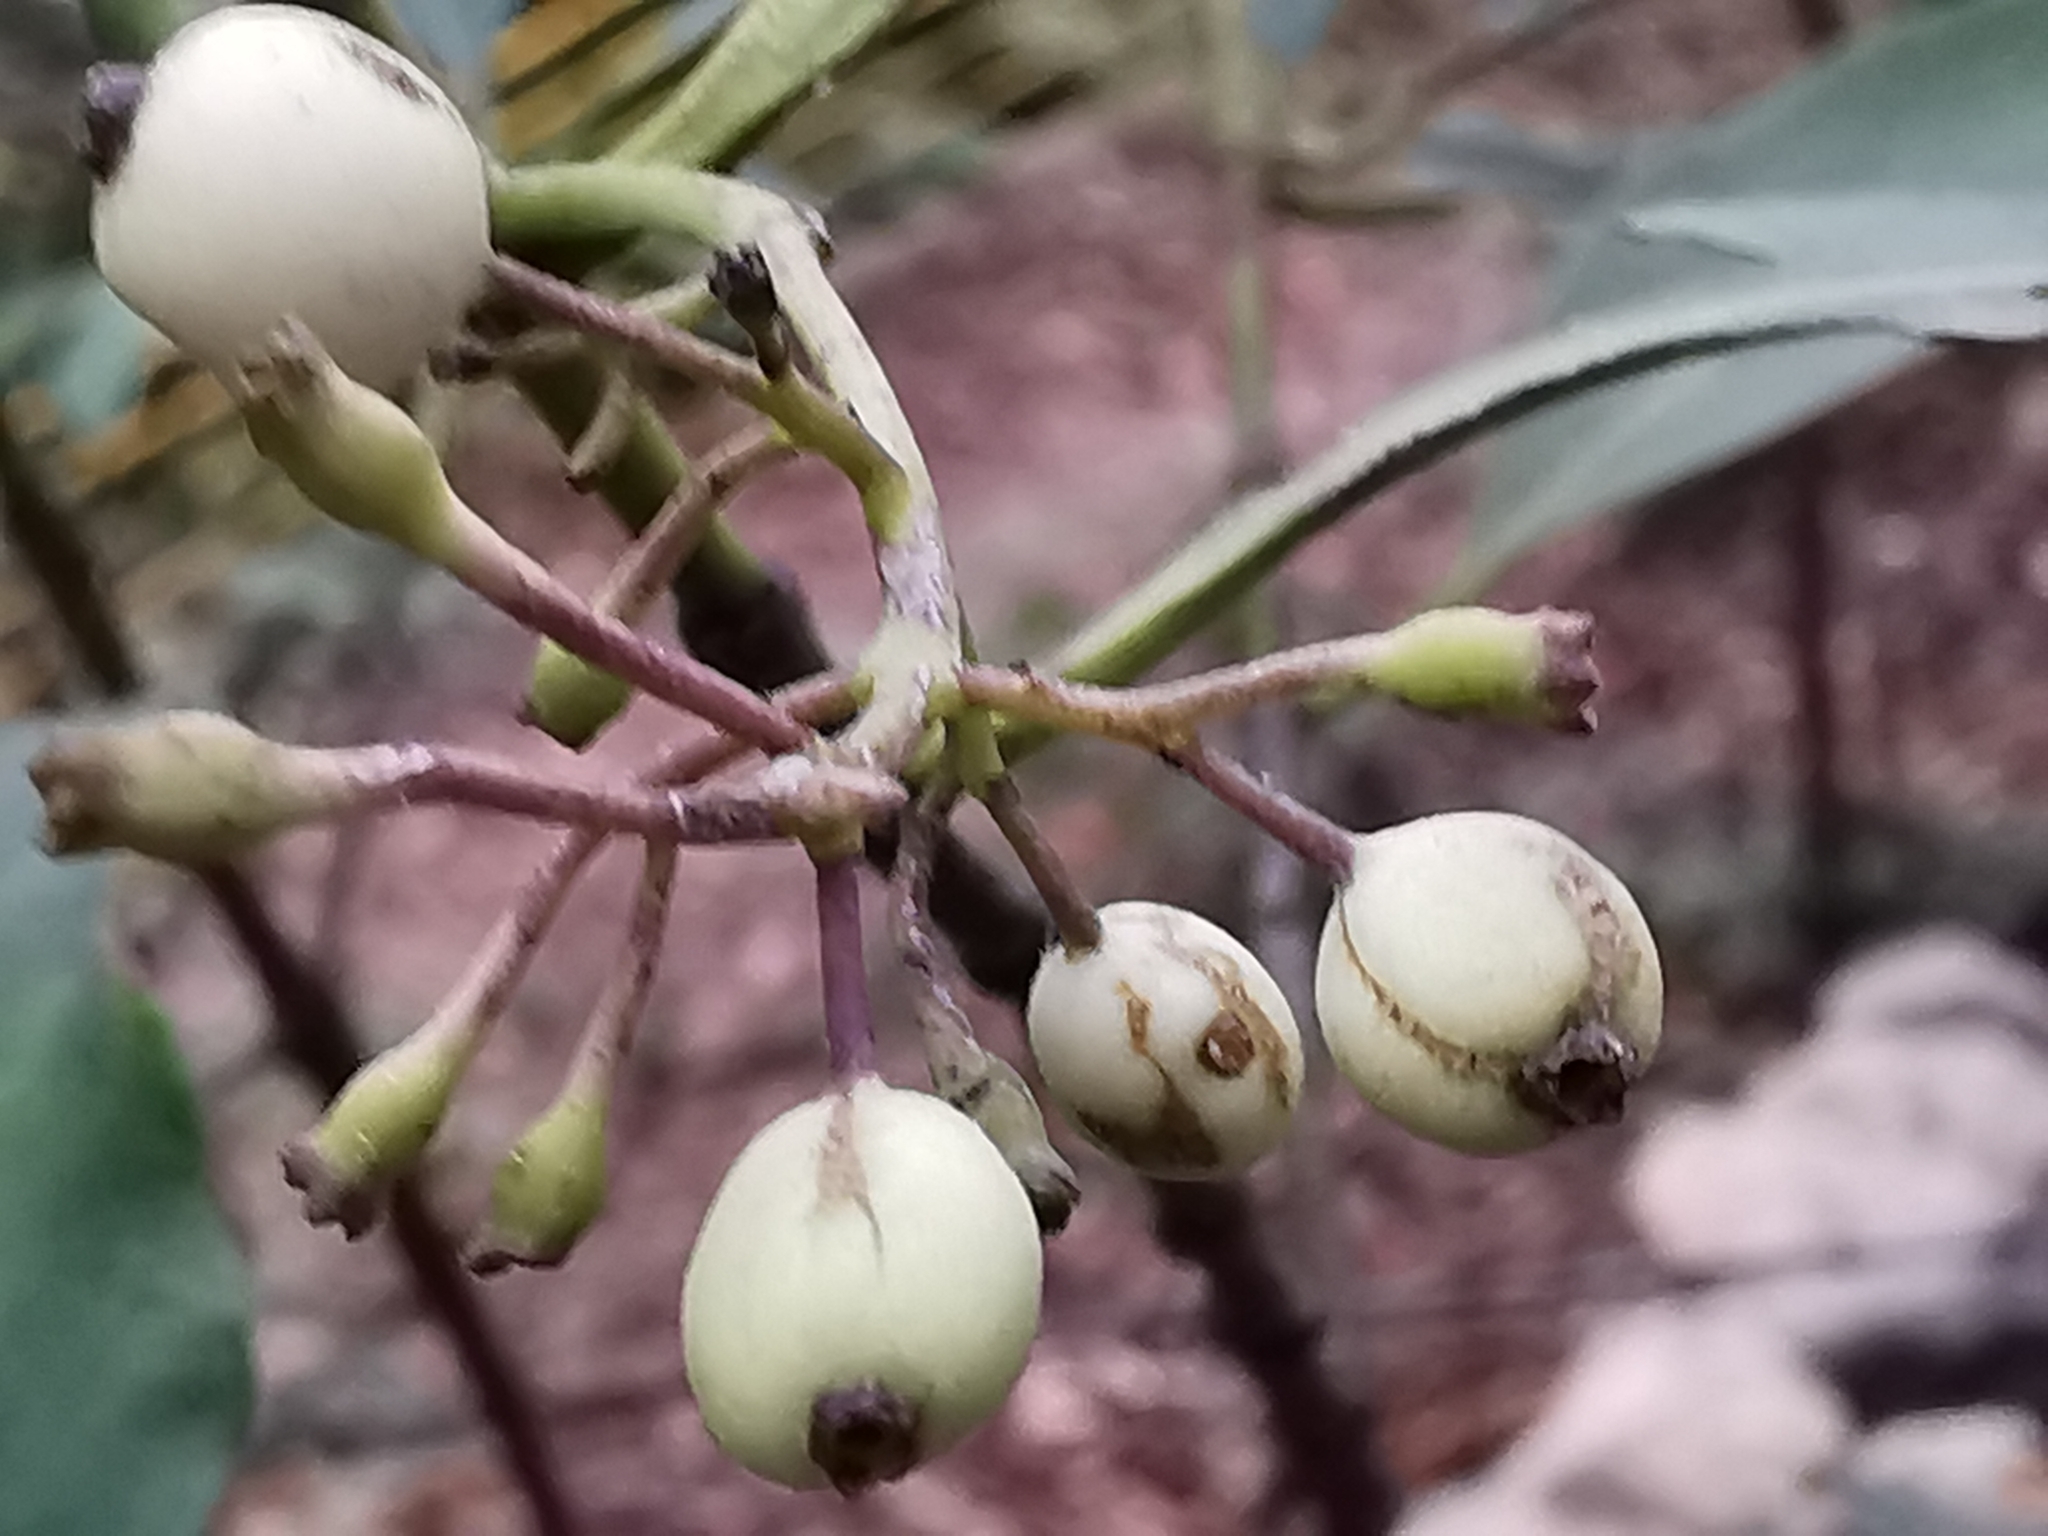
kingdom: Plantae
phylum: Tracheophyta
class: Magnoliopsida
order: Gentianales
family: Rubiaceae
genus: Chiococca
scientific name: Chiococca pachyphylla
